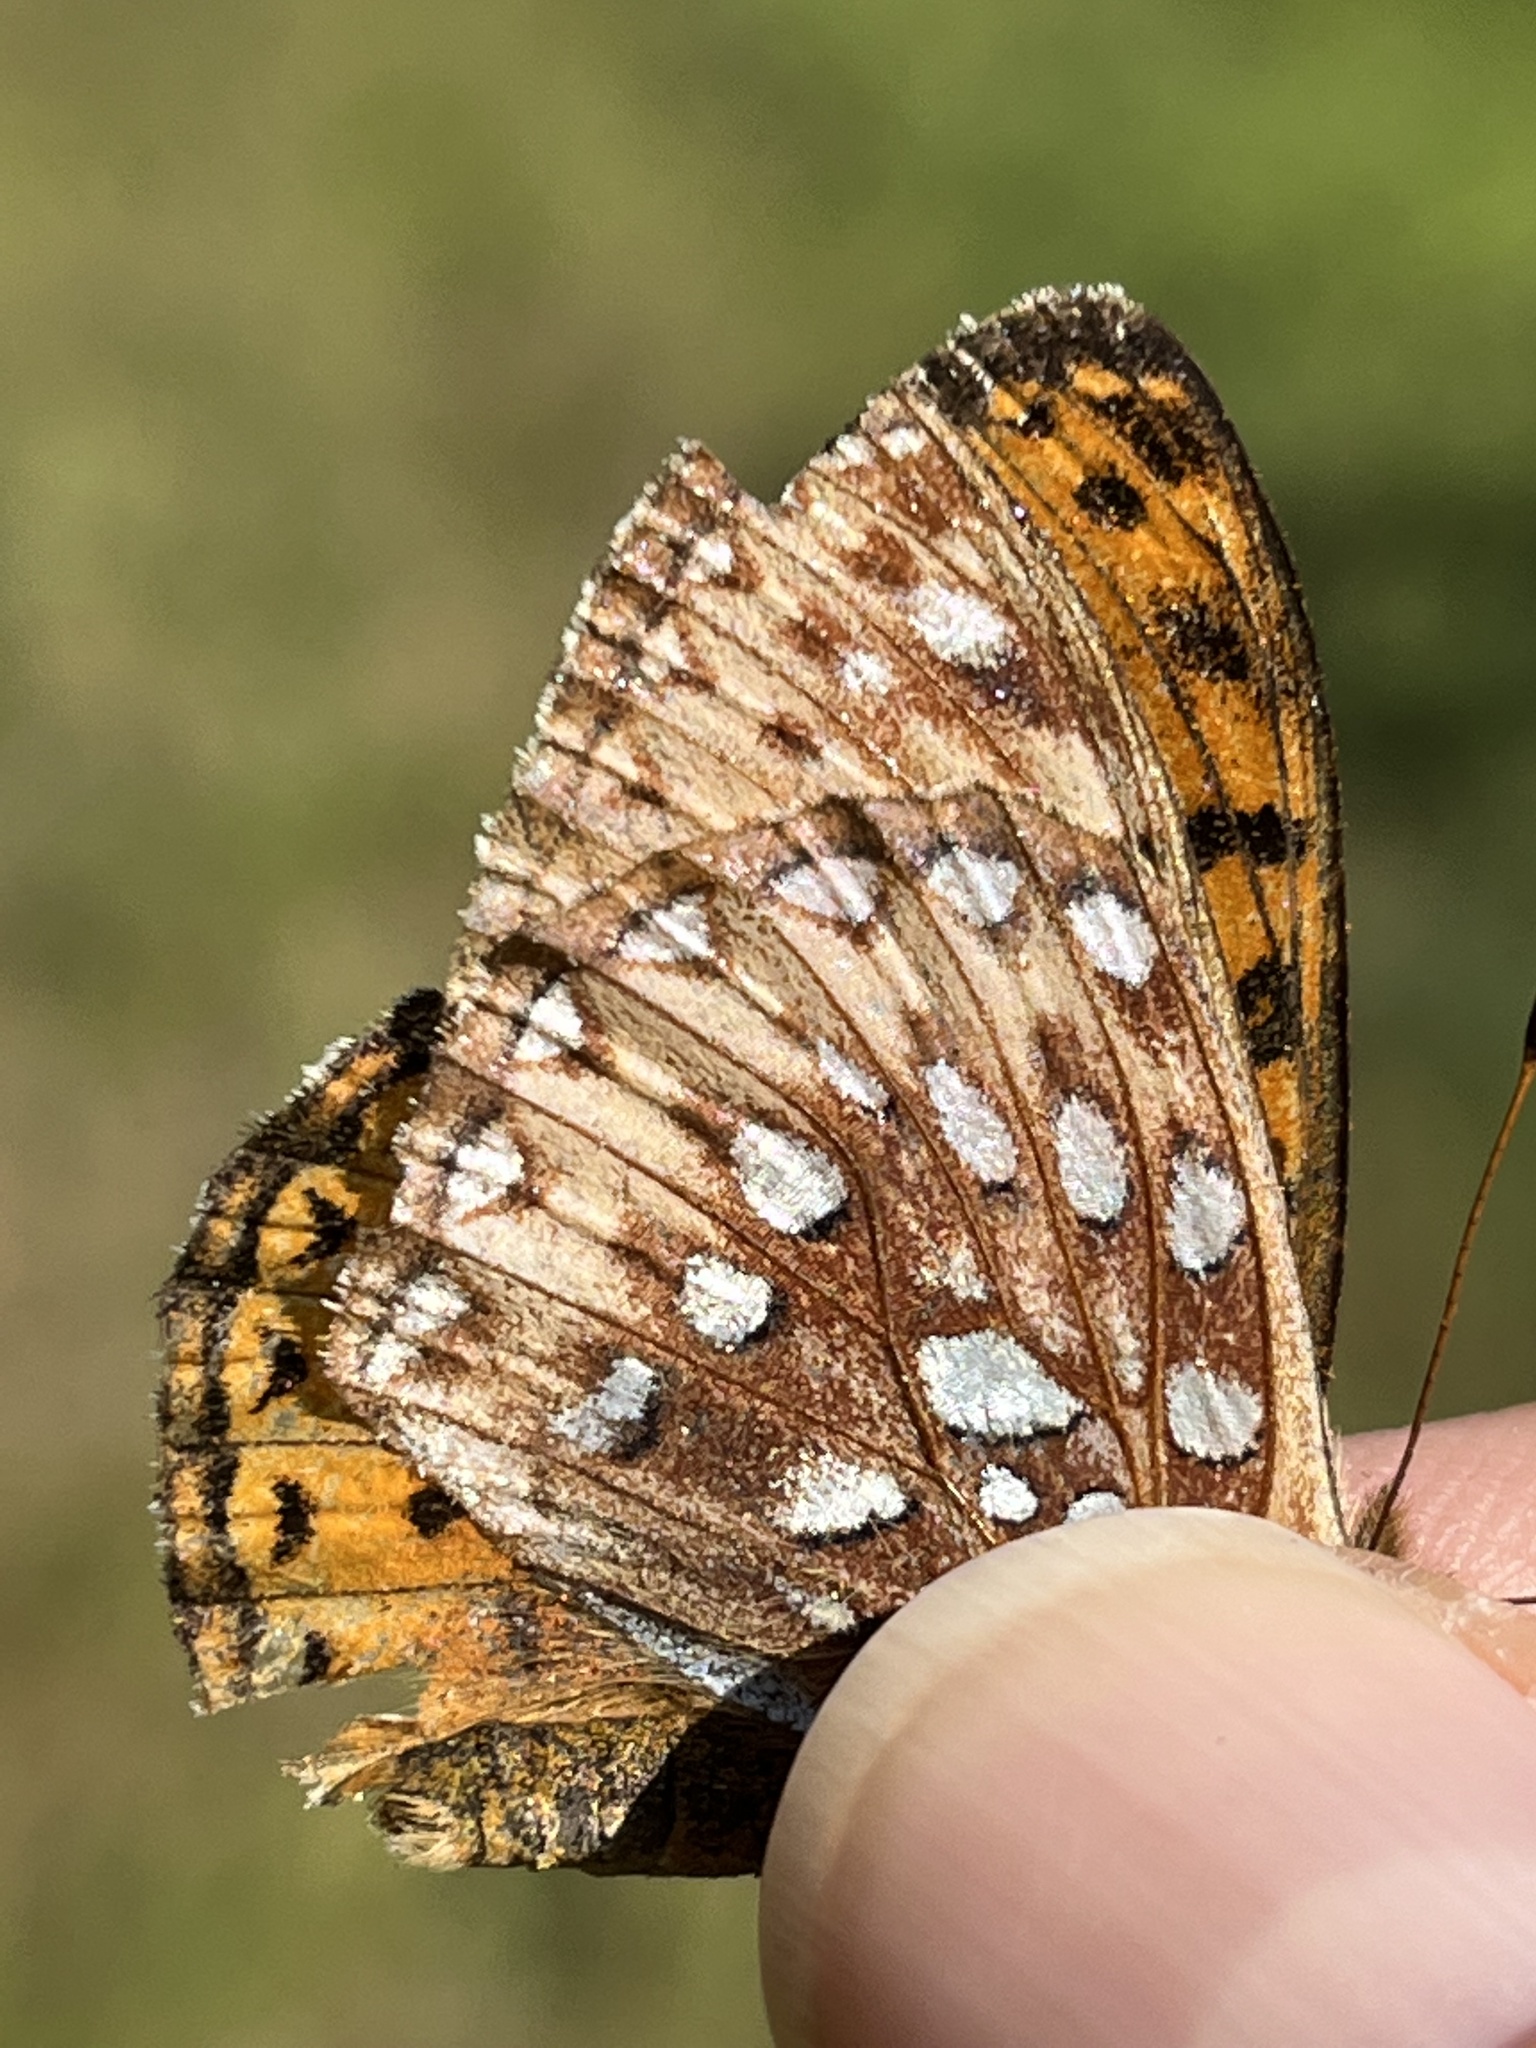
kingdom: Animalia
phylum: Arthropoda
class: Insecta
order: Lepidoptera
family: Nymphalidae
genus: Speyeria
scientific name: Speyeria atlantis
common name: Atlantis fritillary
